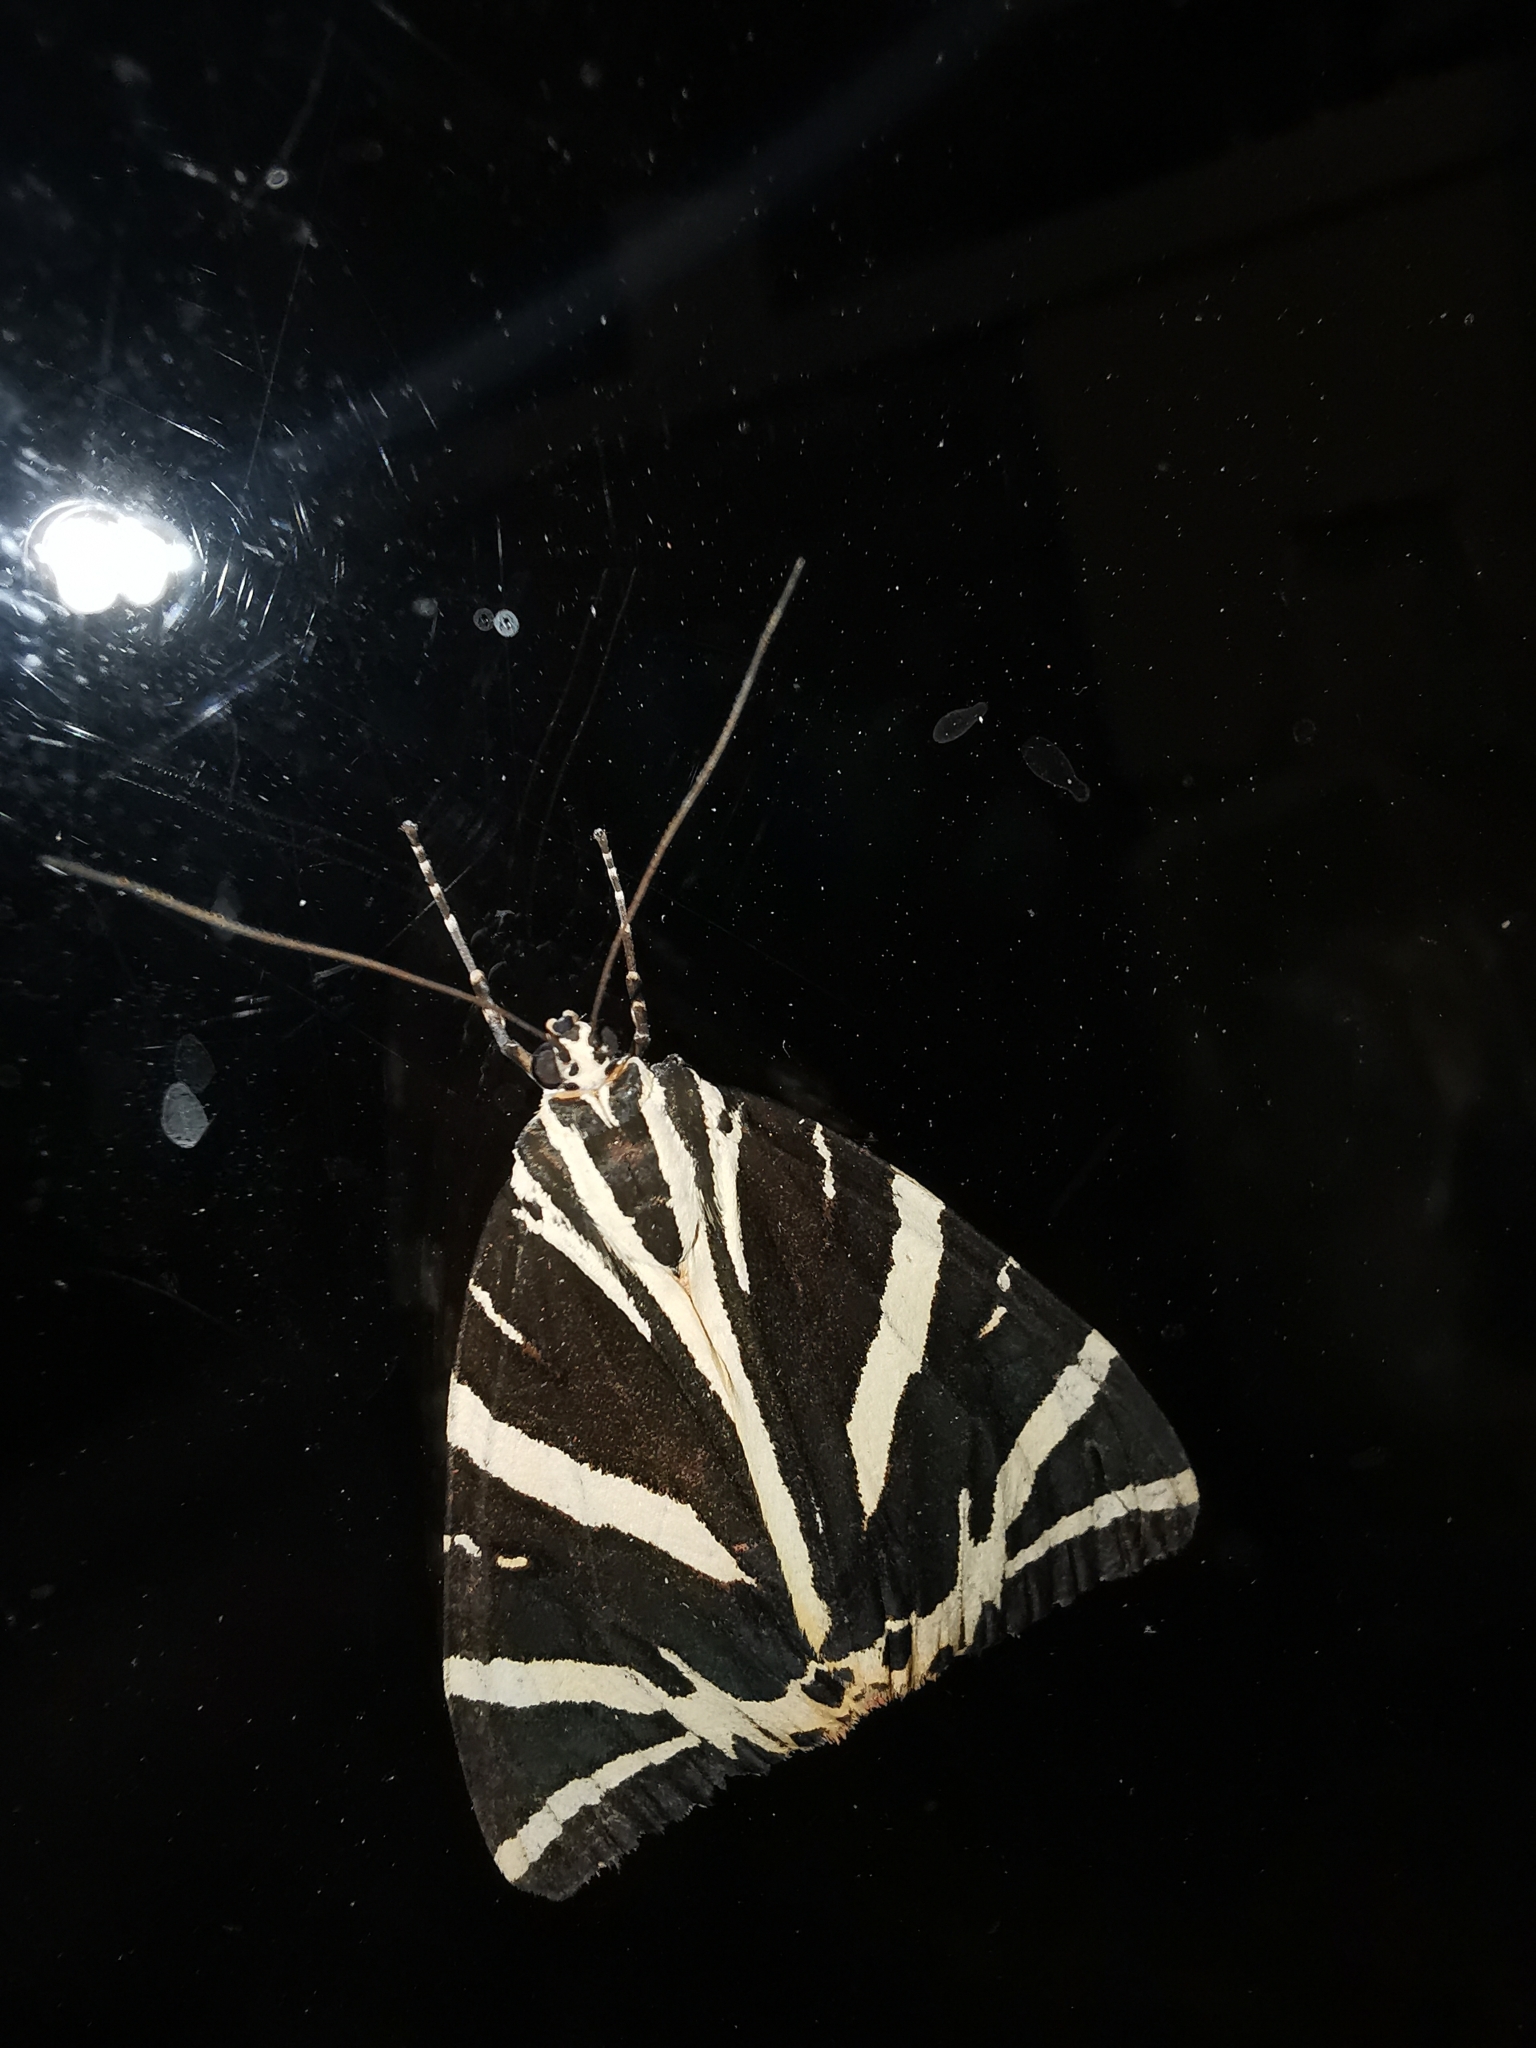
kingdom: Animalia
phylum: Arthropoda
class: Insecta
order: Lepidoptera
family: Erebidae
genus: Euplagia
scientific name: Euplagia quadripunctaria
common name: Jersey tiger
